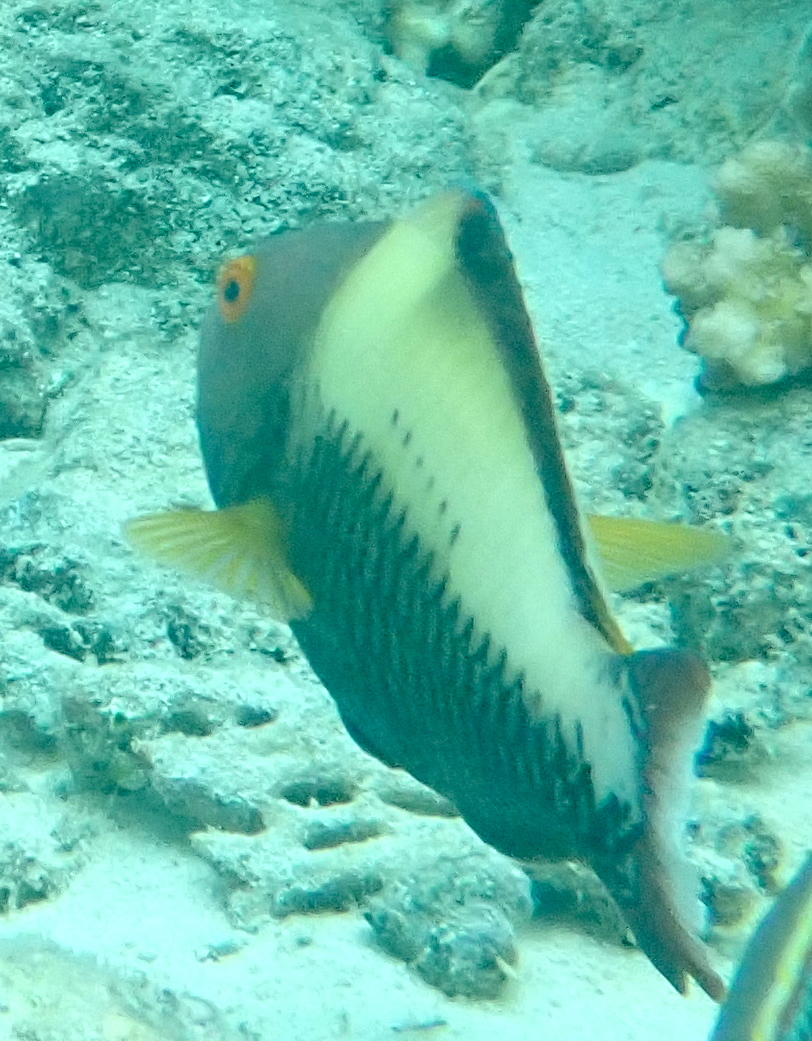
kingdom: Animalia
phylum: Chordata
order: Perciformes
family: Scaridae
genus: Cetoscarus
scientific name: Cetoscarus ocellatus
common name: Bicolor parrotfish
